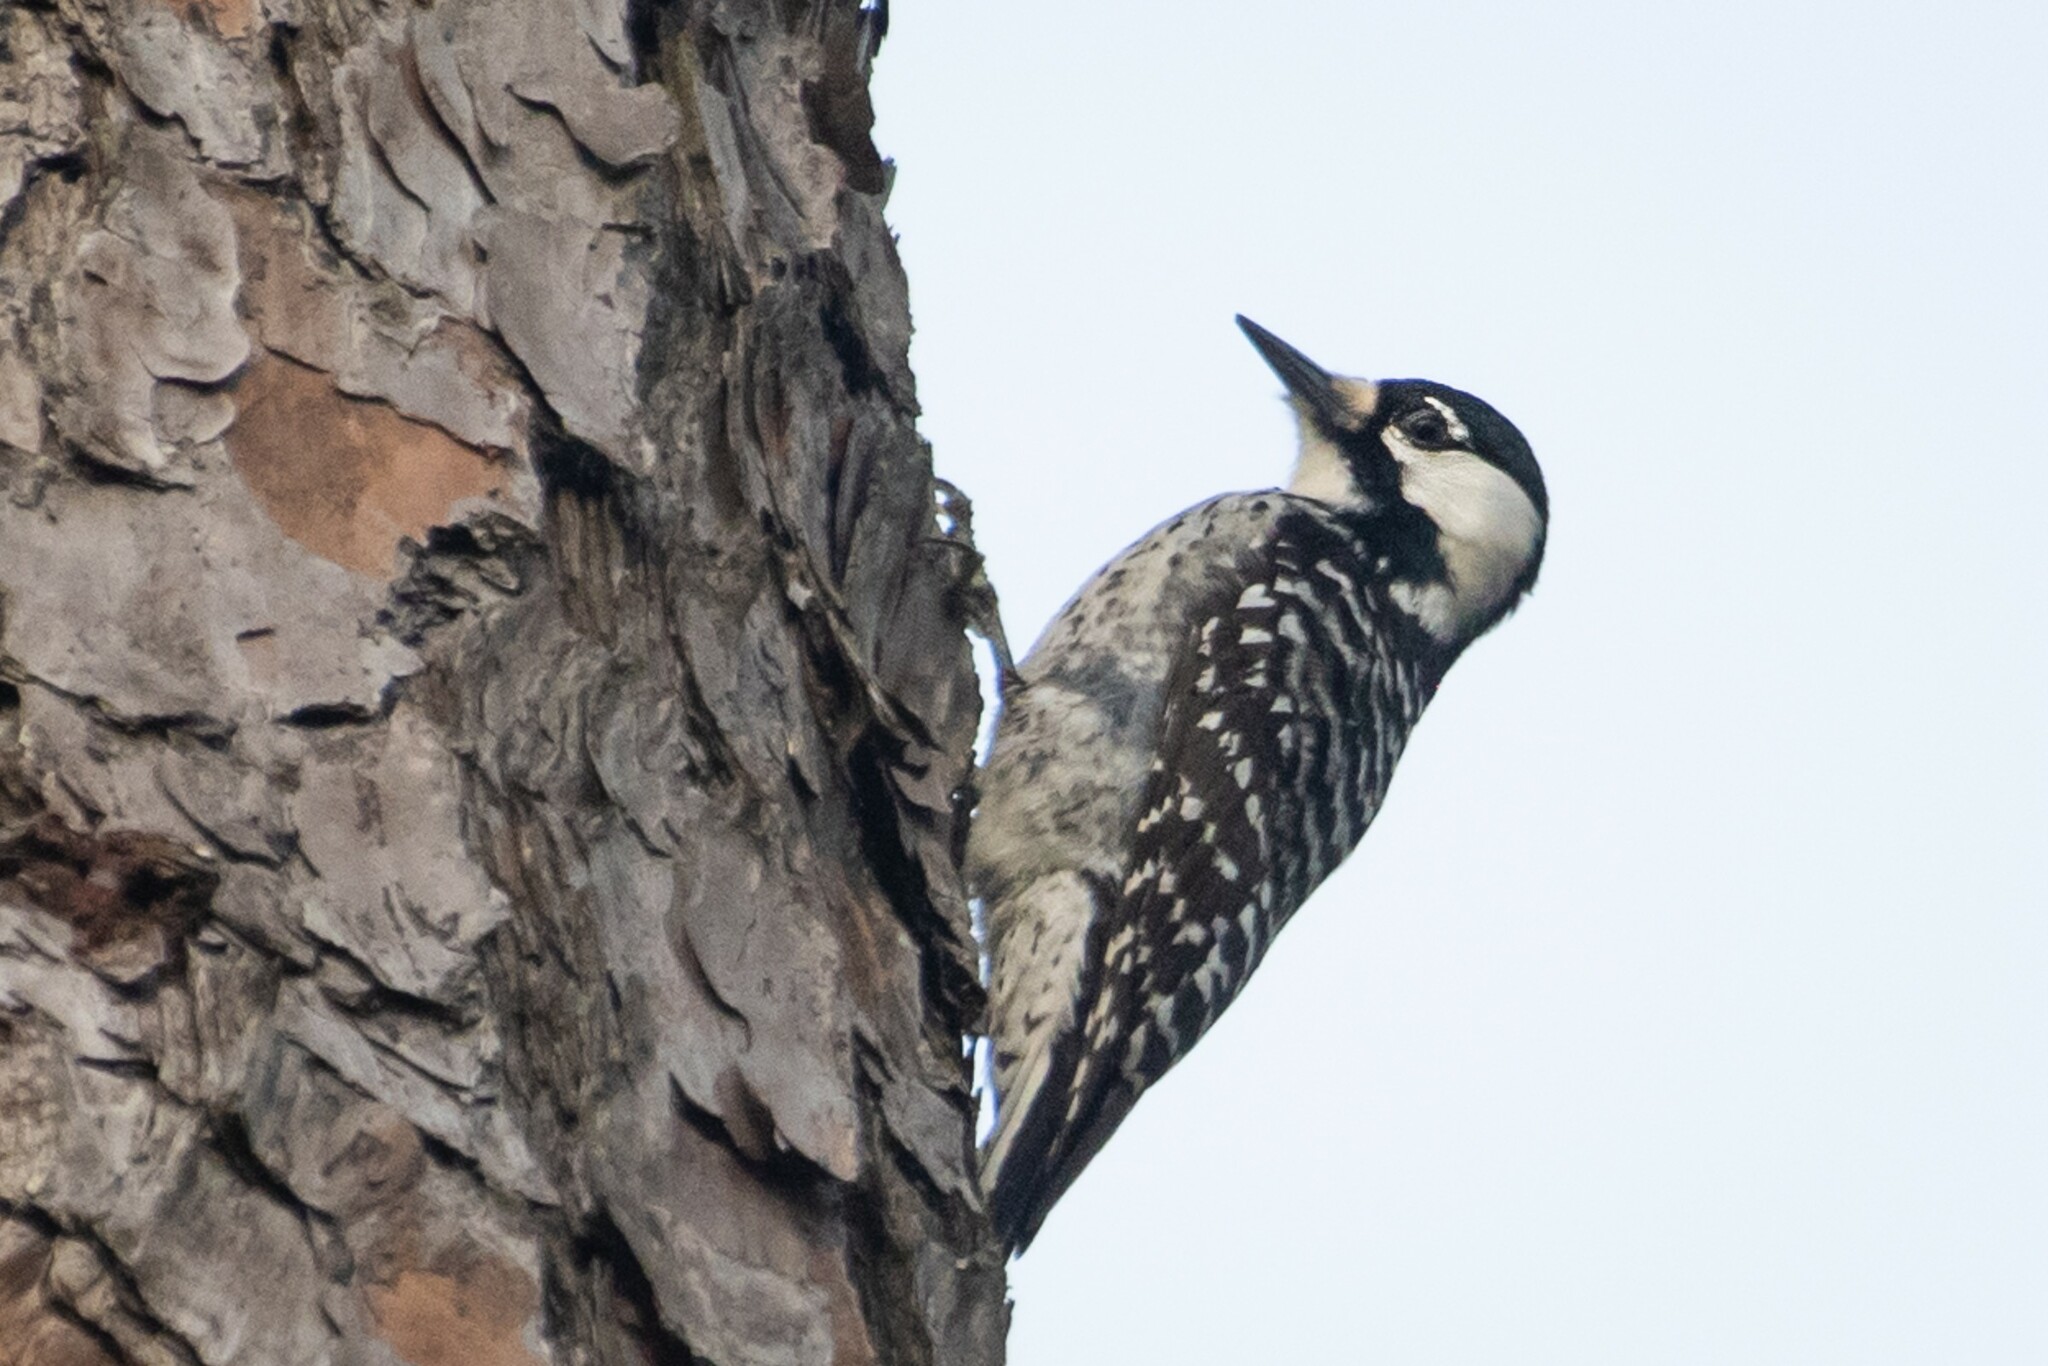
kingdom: Animalia
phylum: Chordata
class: Aves
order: Piciformes
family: Picidae
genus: Leuconotopicus
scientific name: Leuconotopicus borealis
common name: Red-cockaded woodpecker
